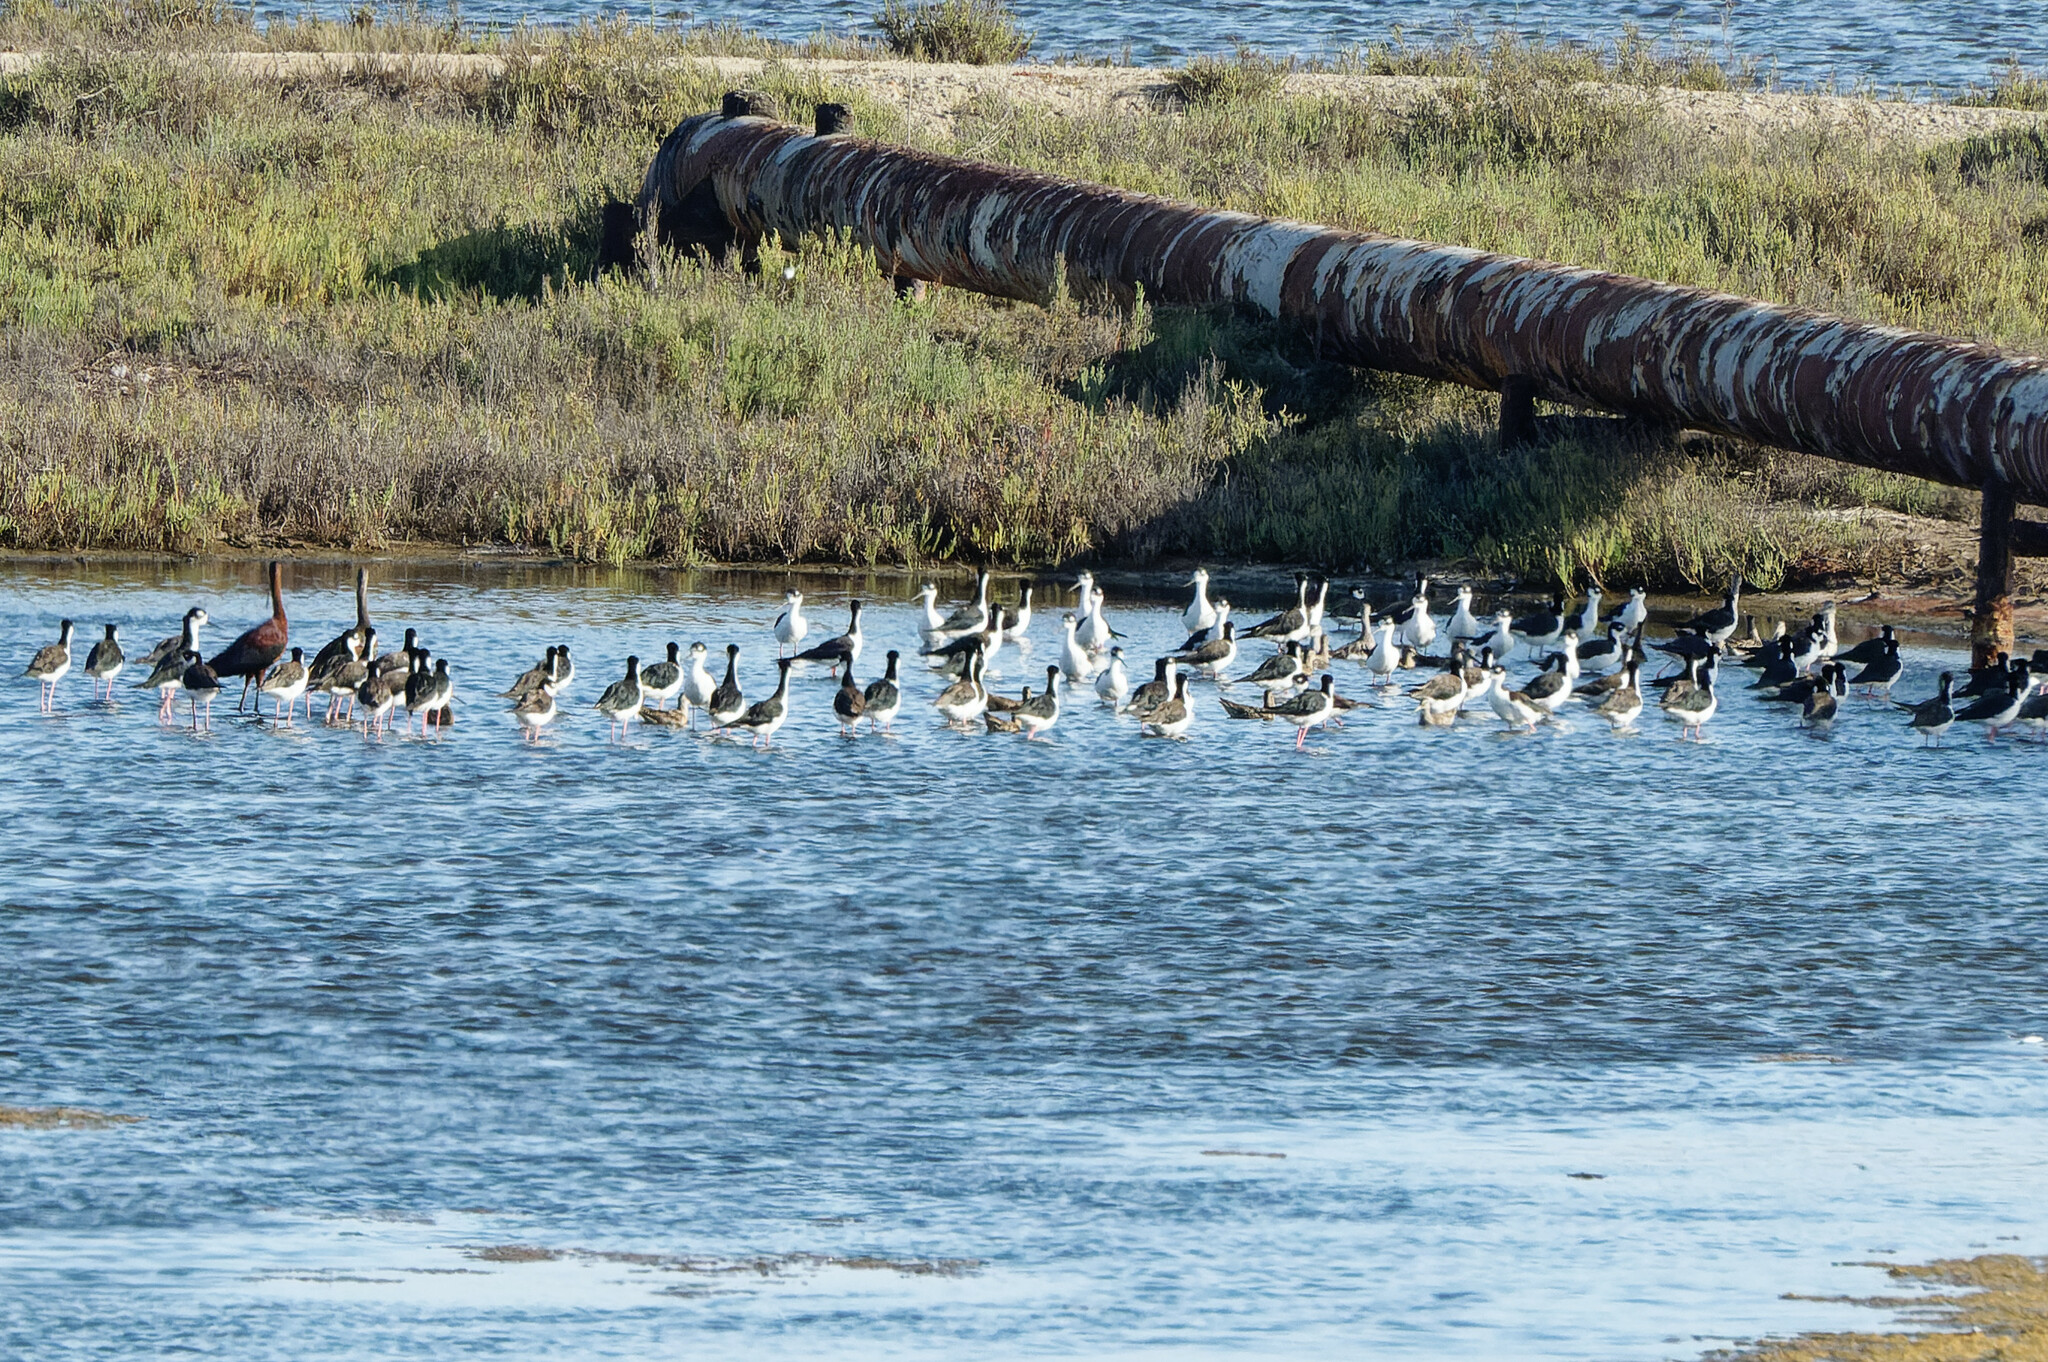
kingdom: Animalia
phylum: Chordata
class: Aves
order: Charadriiformes
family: Recurvirostridae
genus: Himantopus
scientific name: Himantopus mexicanus
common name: Black-necked stilt
